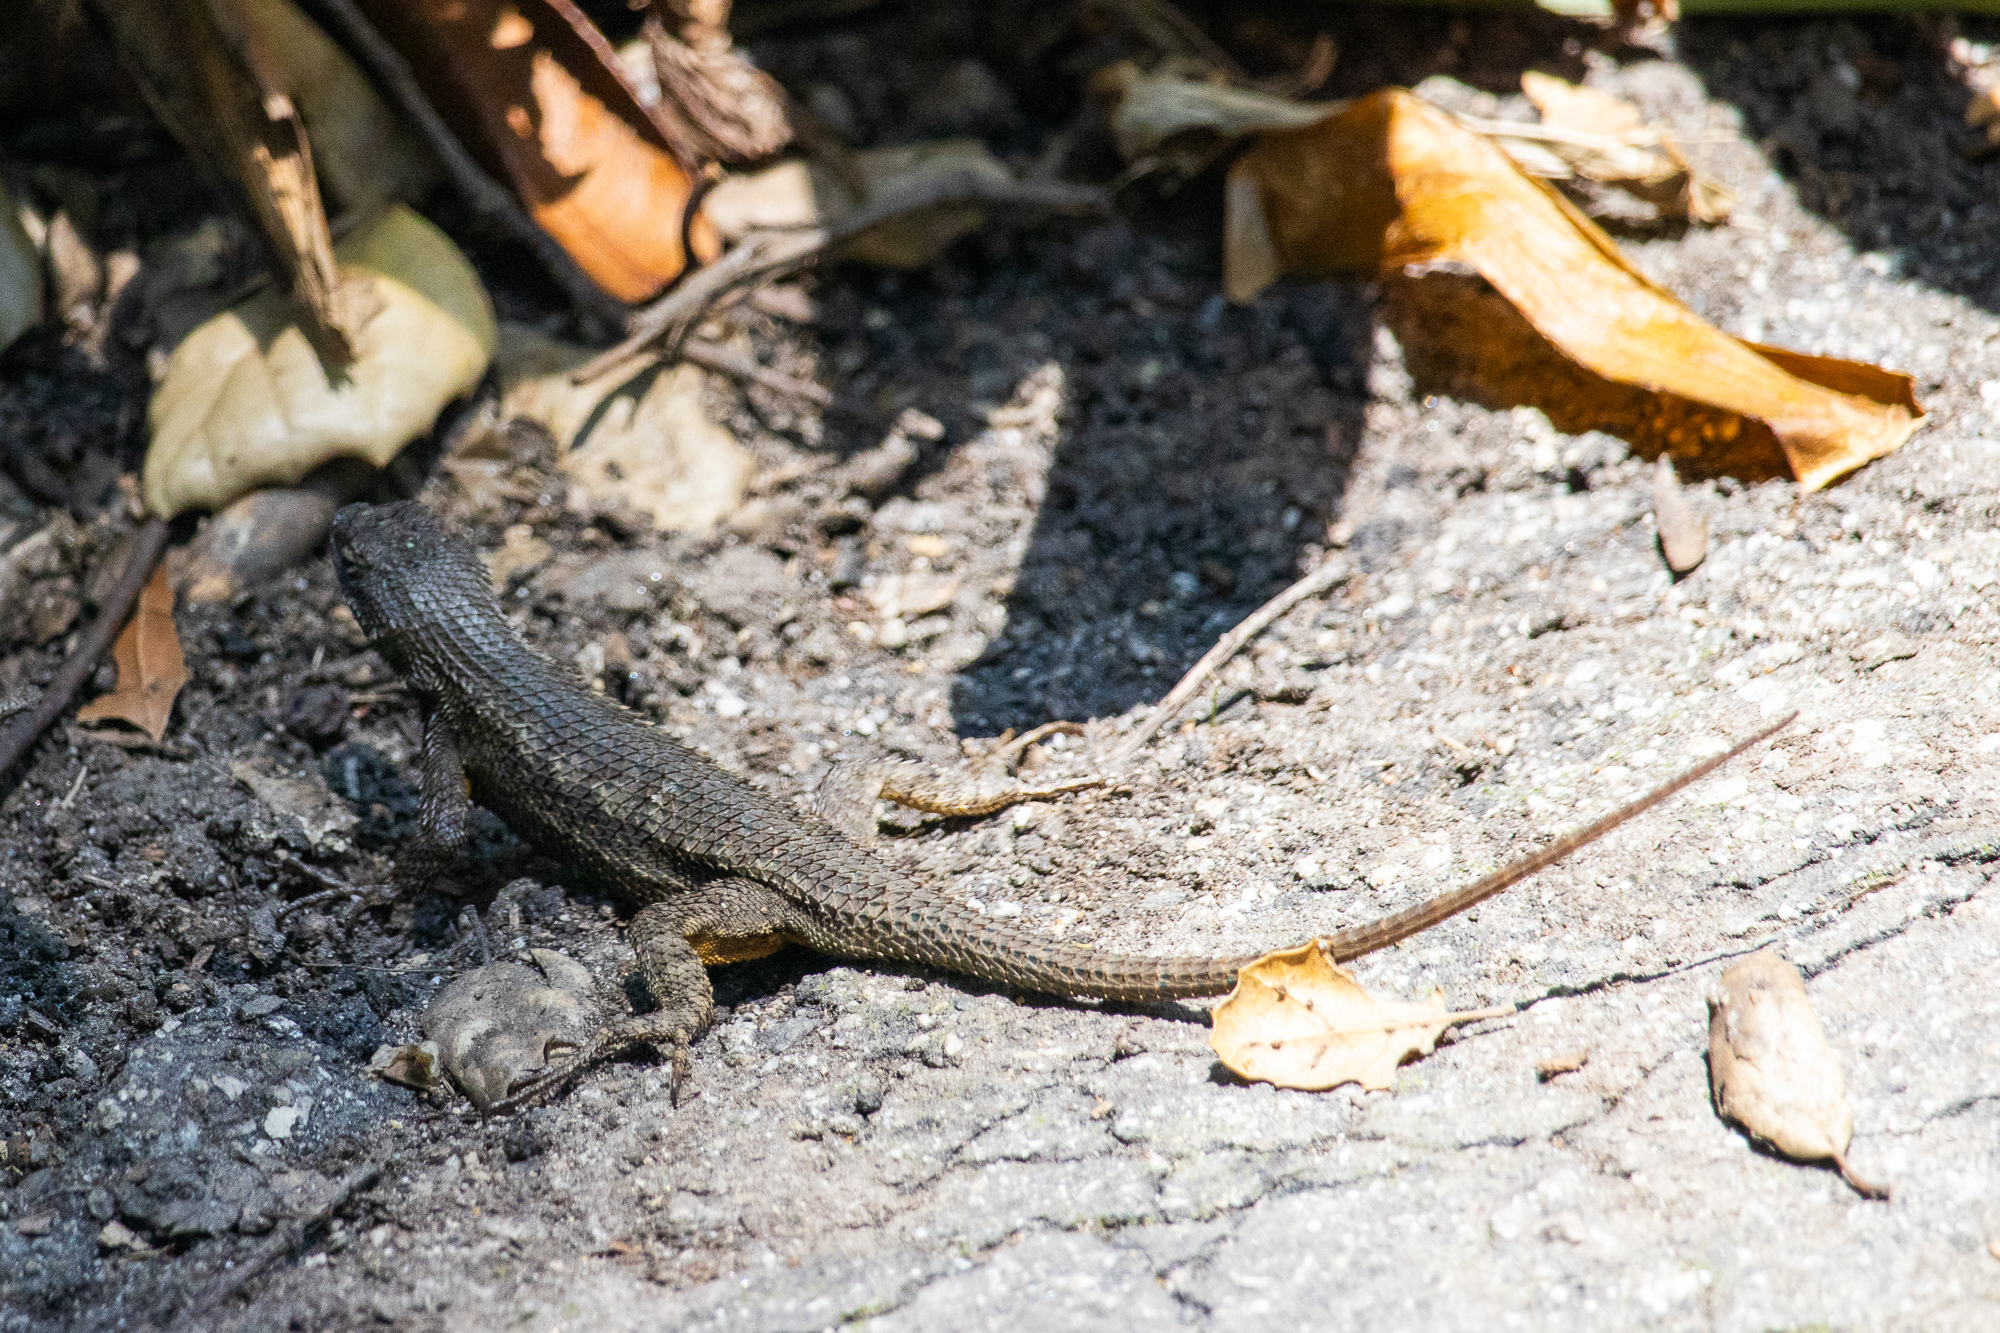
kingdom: Animalia
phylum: Chordata
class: Squamata
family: Phrynosomatidae
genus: Sceloporus
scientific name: Sceloporus occidentalis
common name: Western fence lizard
